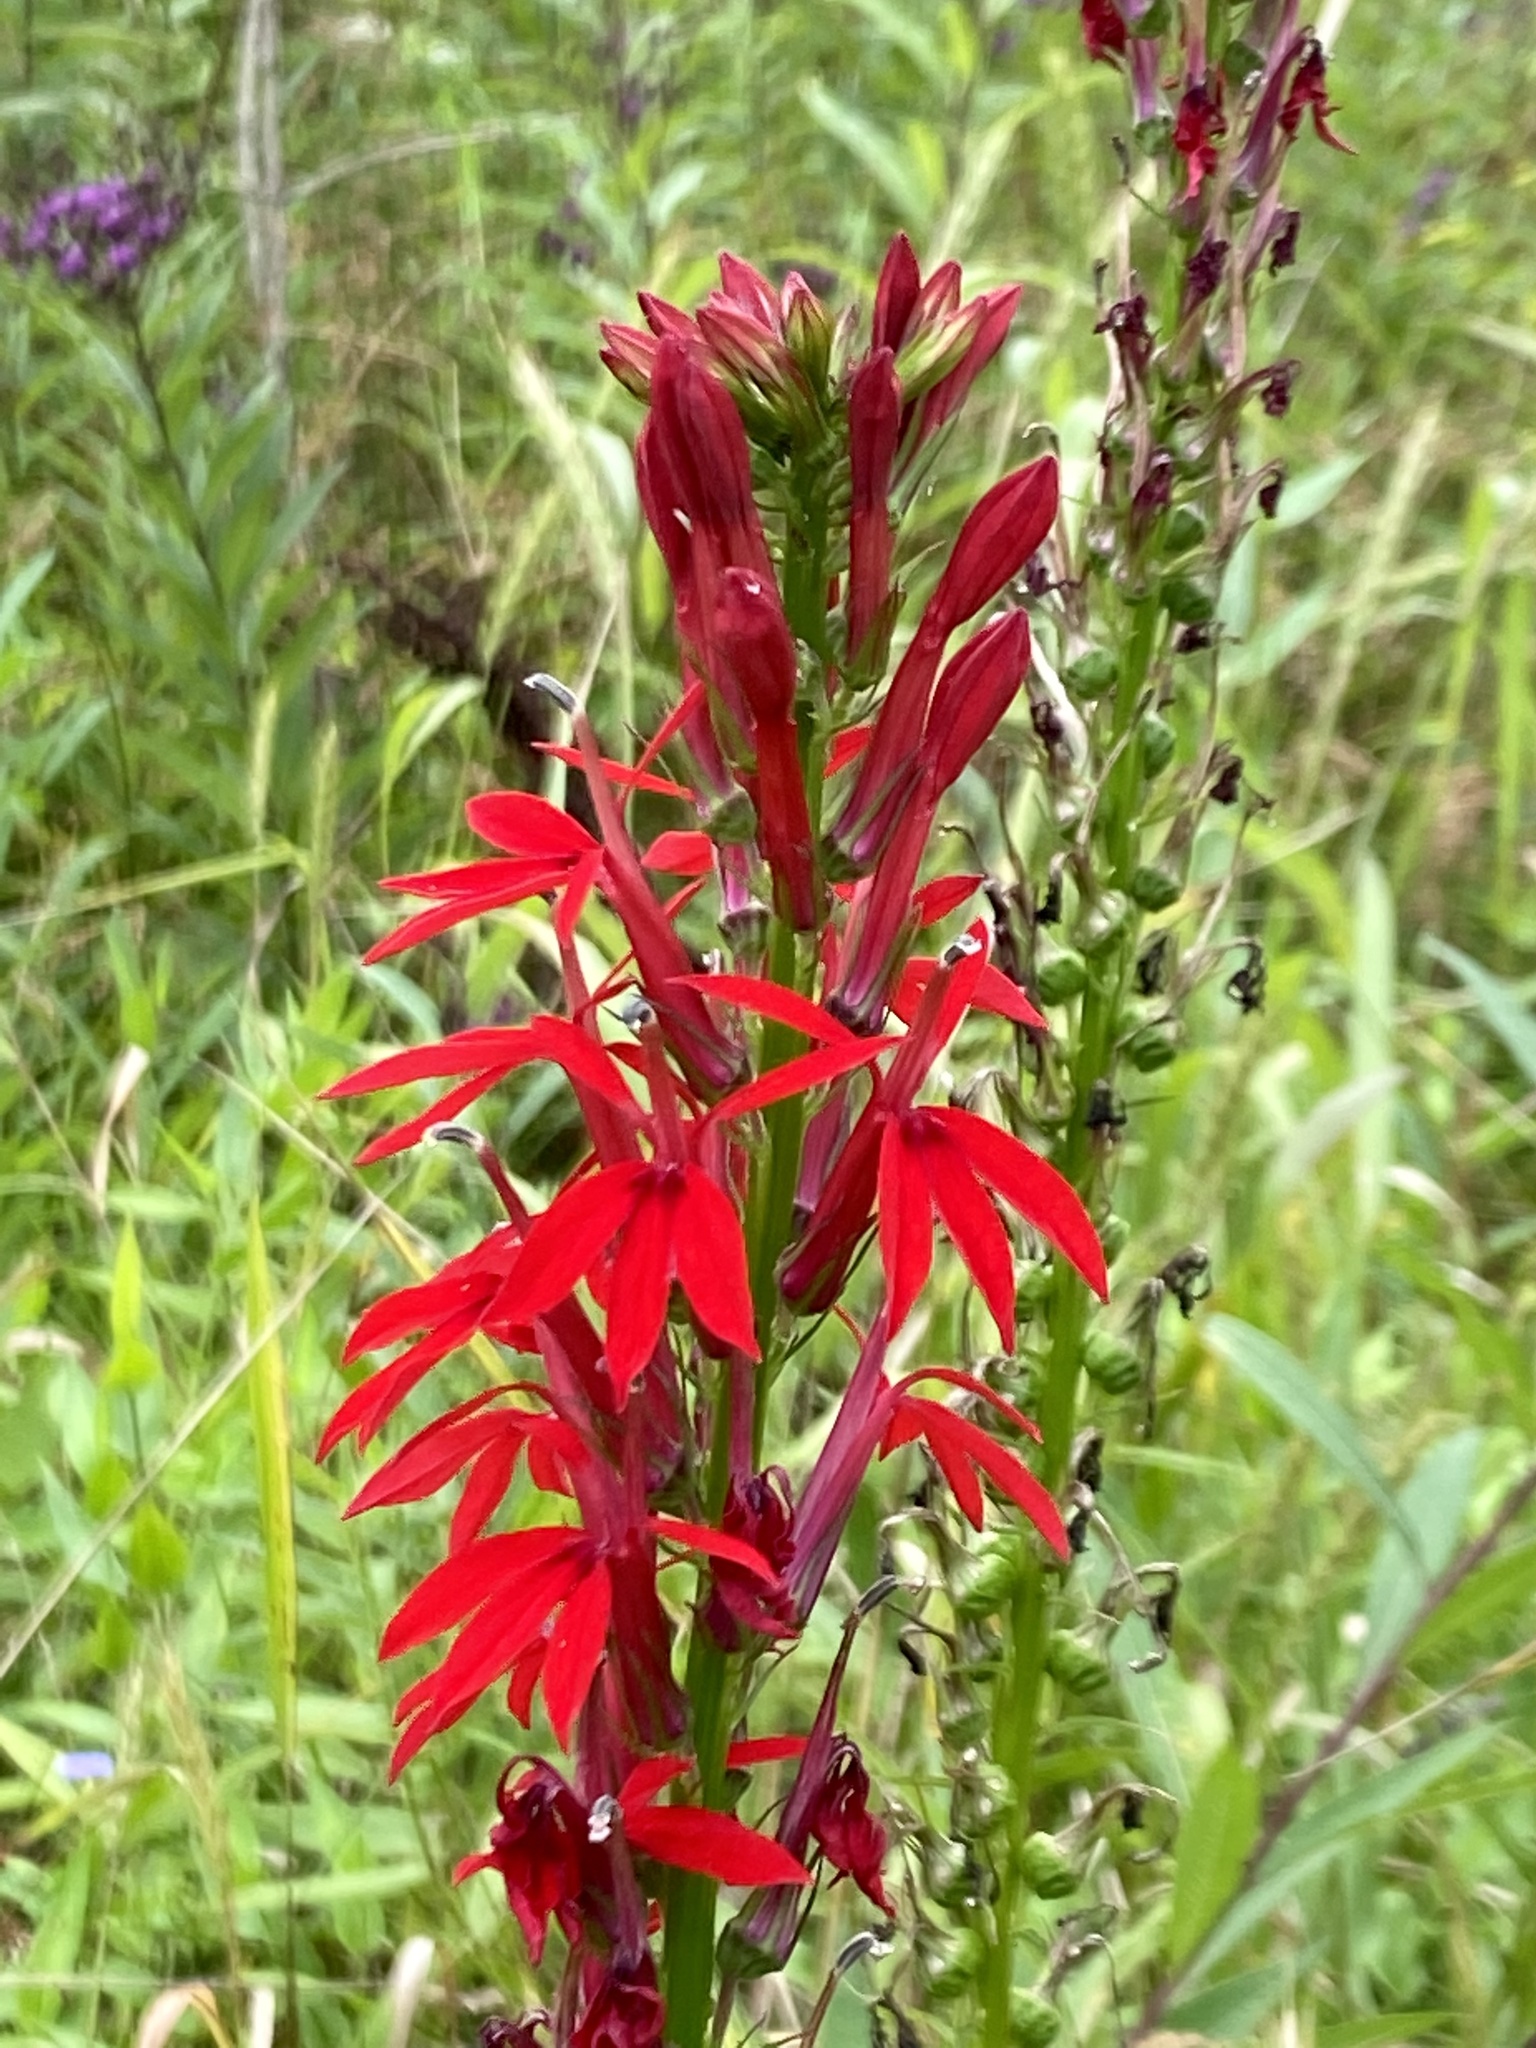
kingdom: Plantae
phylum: Tracheophyta
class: Magnoliopsida
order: Asterales
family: Campanulaceae
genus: Lobelia
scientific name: Lobelia cardinalis
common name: Cardinal flower
